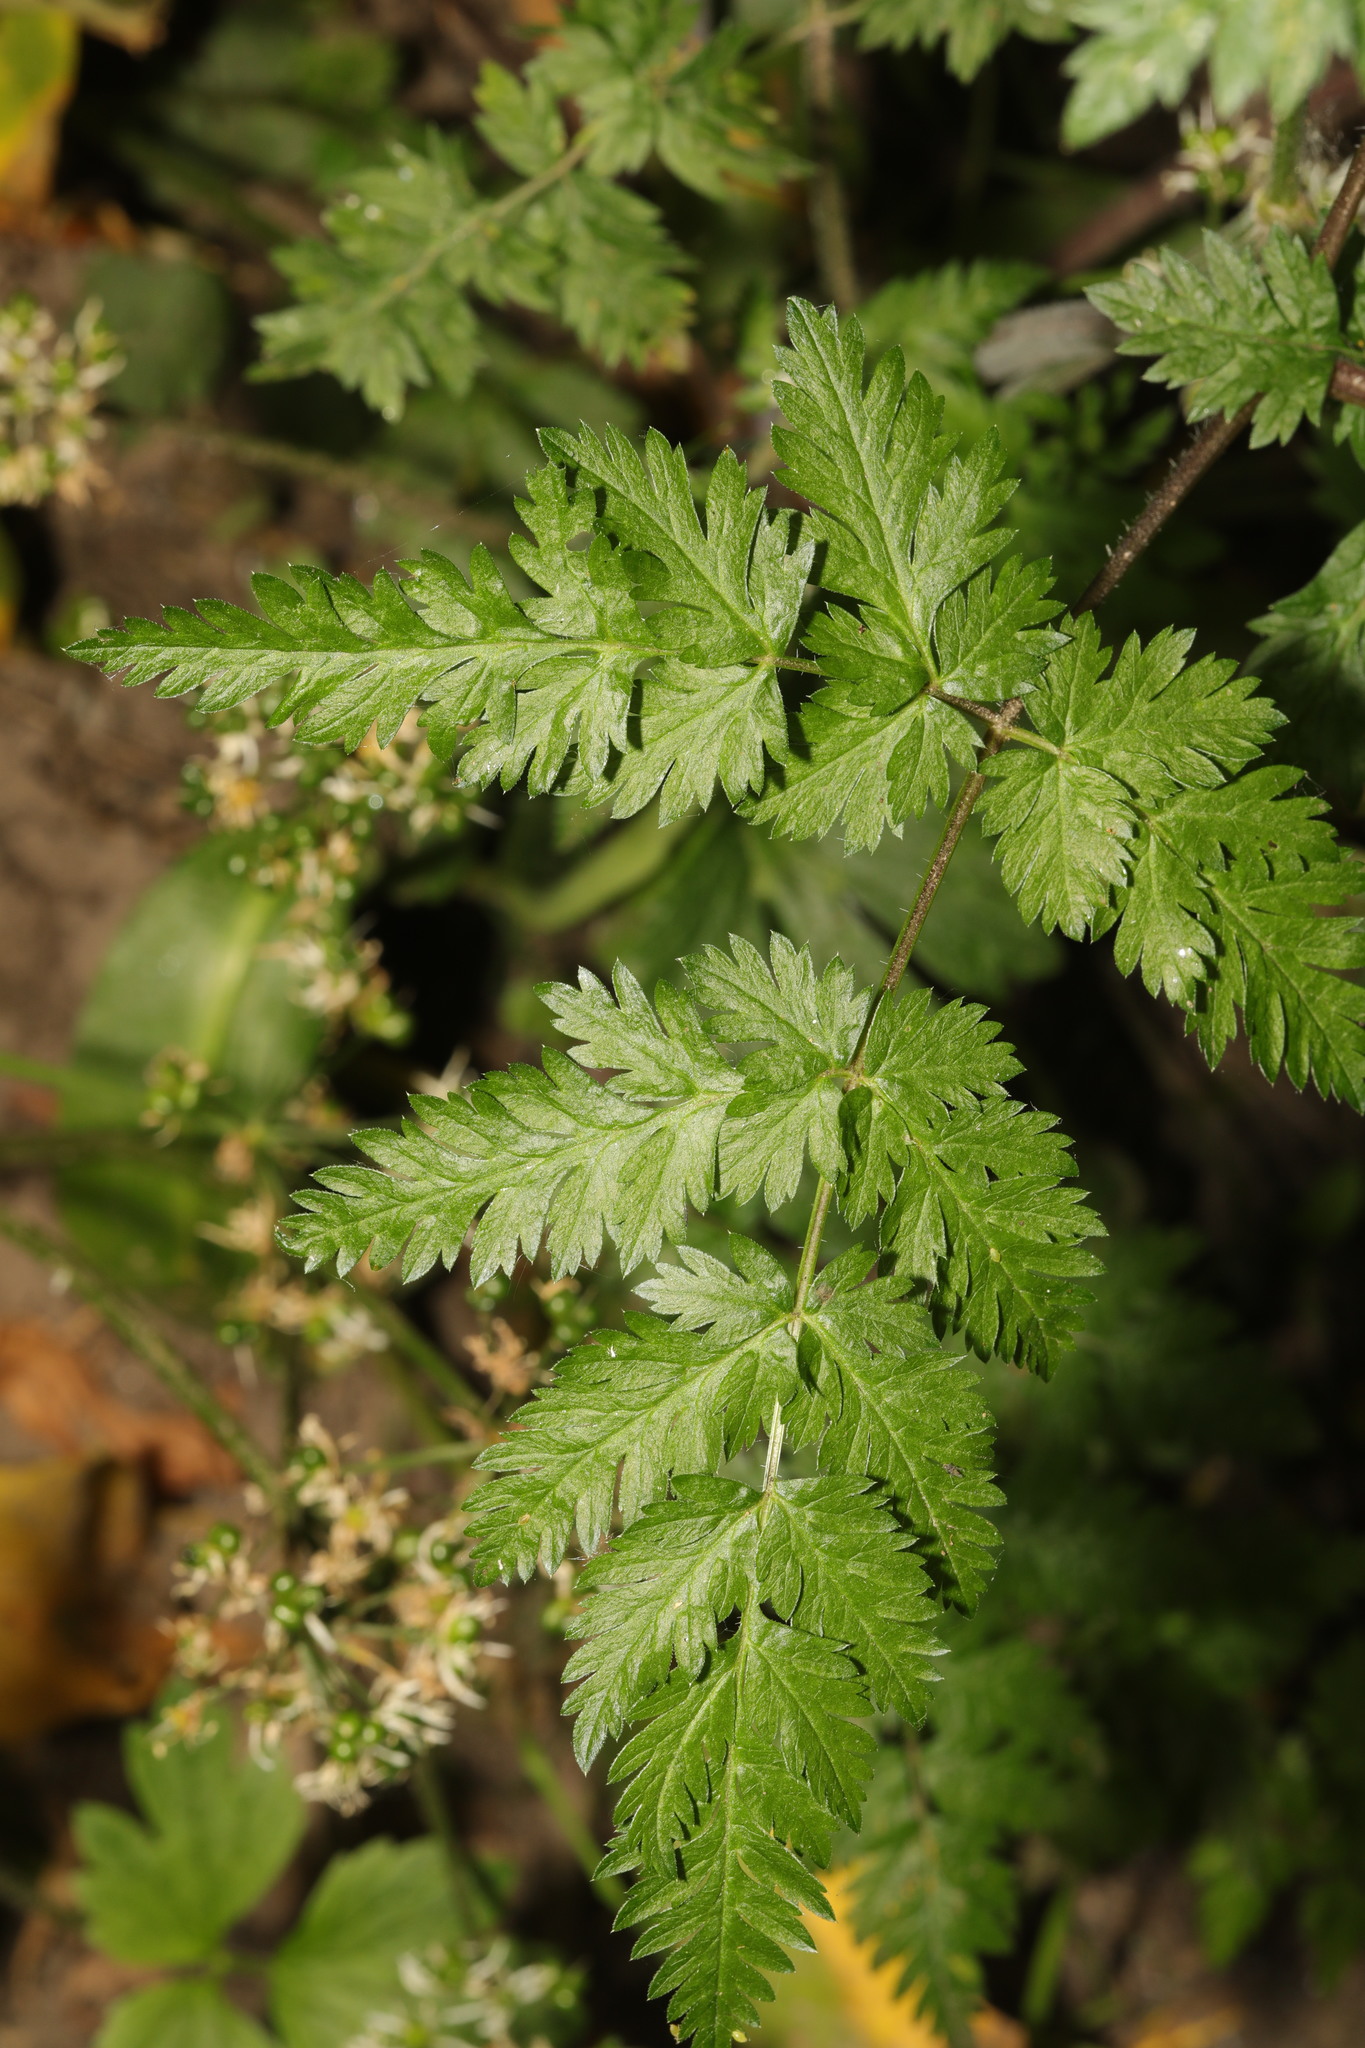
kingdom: Plantae
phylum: Tracheophyta
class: Magnoliopsida
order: Apiales
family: Apiaceae
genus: Anthriscus
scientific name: Anthriscus sylvestris
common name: Cow parsley
